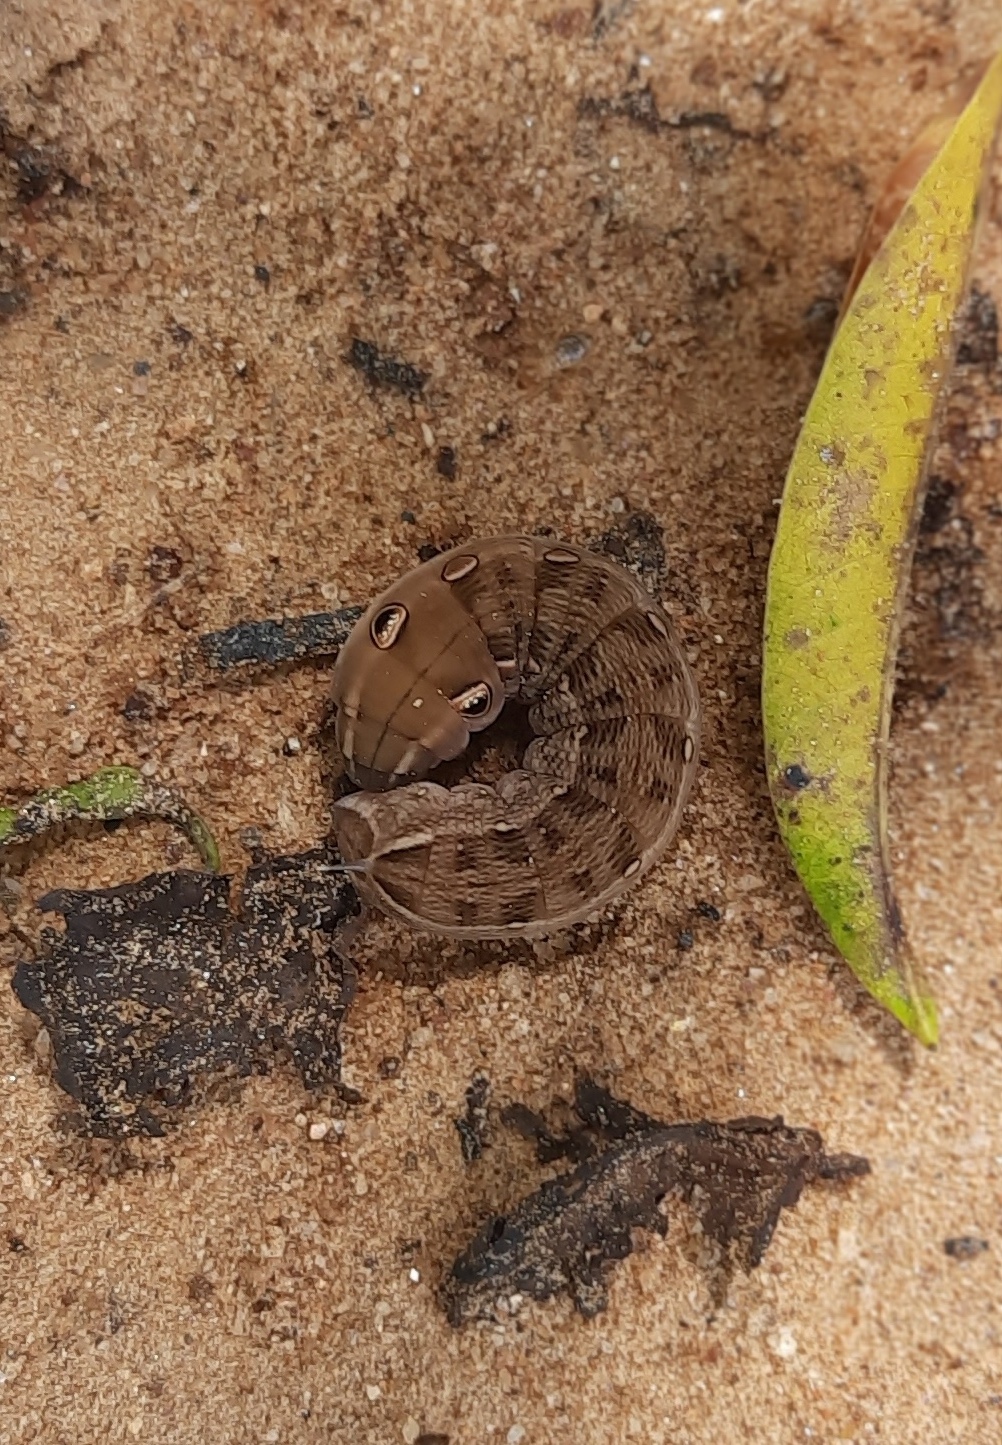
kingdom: Animalia
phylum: Arthropoda
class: Insecta
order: Lepidoptera
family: Sphingidae
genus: Hippotion
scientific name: Hippotion rosetta
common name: Vine hawk moth
